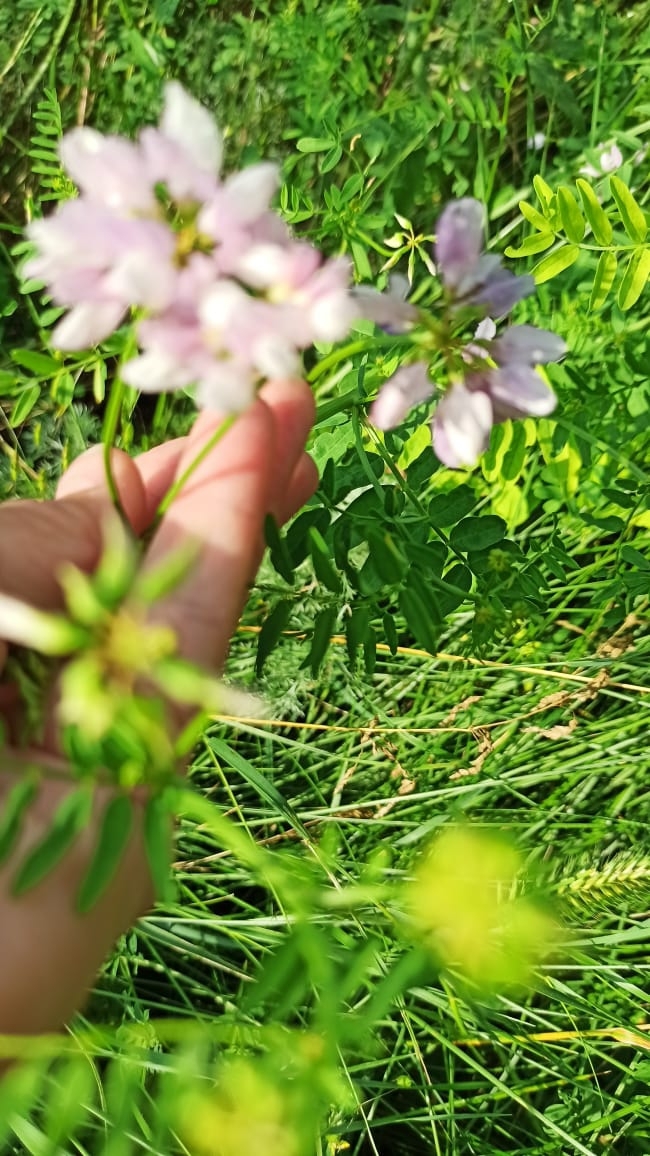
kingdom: Plantae
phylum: Tracheophyta
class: Magnoliopsida
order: Fabales
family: Fabaceae
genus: Coronilla
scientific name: Coronilla varia
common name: Crownvetch
